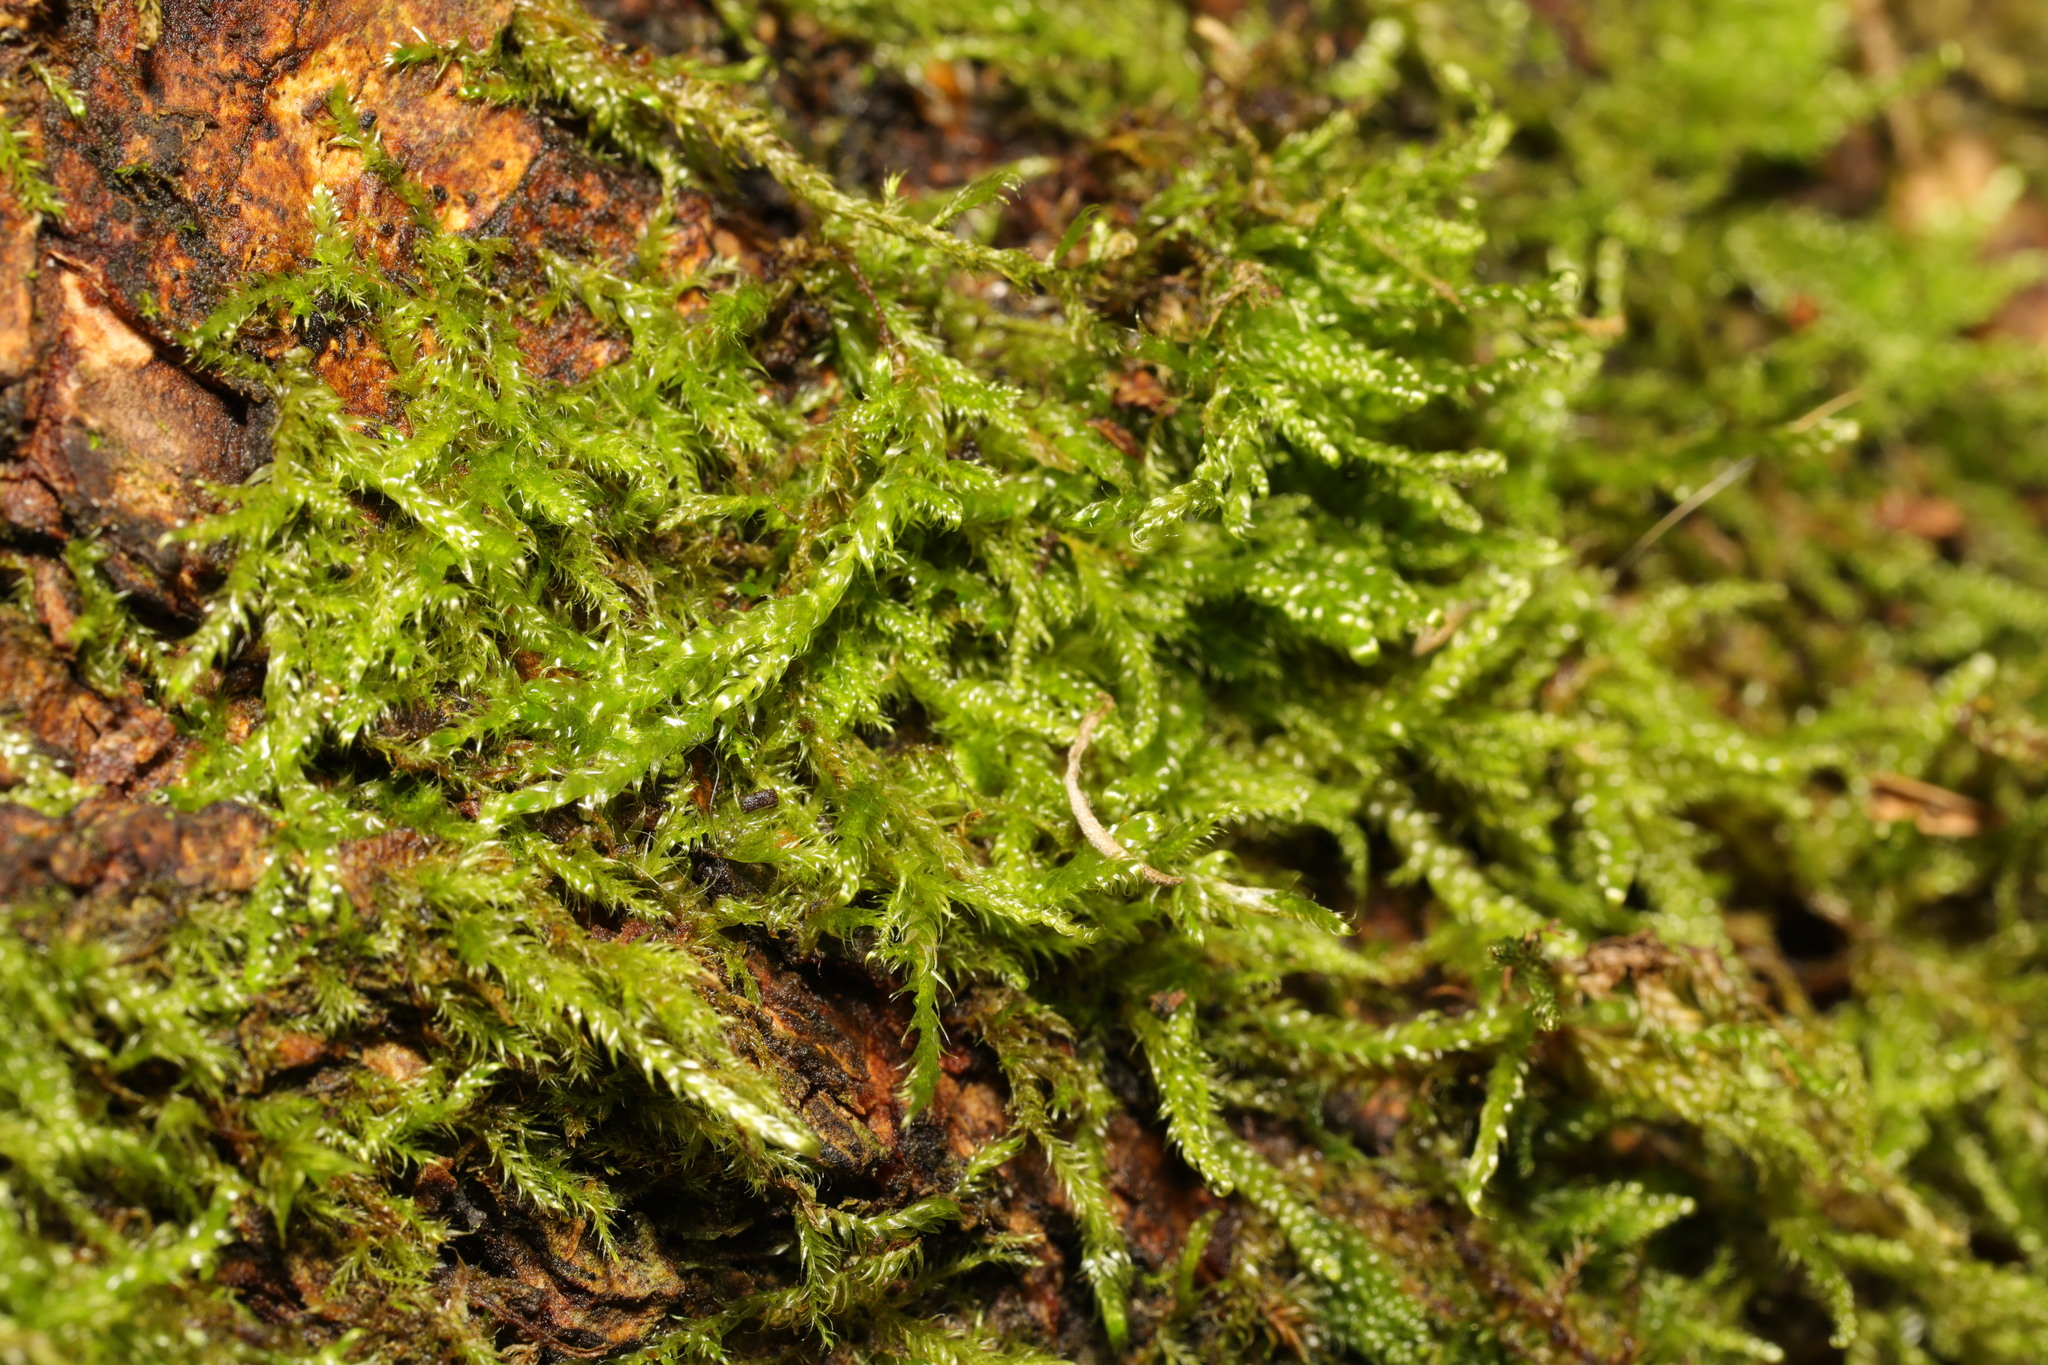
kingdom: Plantae
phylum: Bryophyta
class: Bryopsida
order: Hypnales
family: Hypnaceae
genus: Hypnum
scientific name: Hypnum cupressiforme
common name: Cypress-leaved plait-moss
